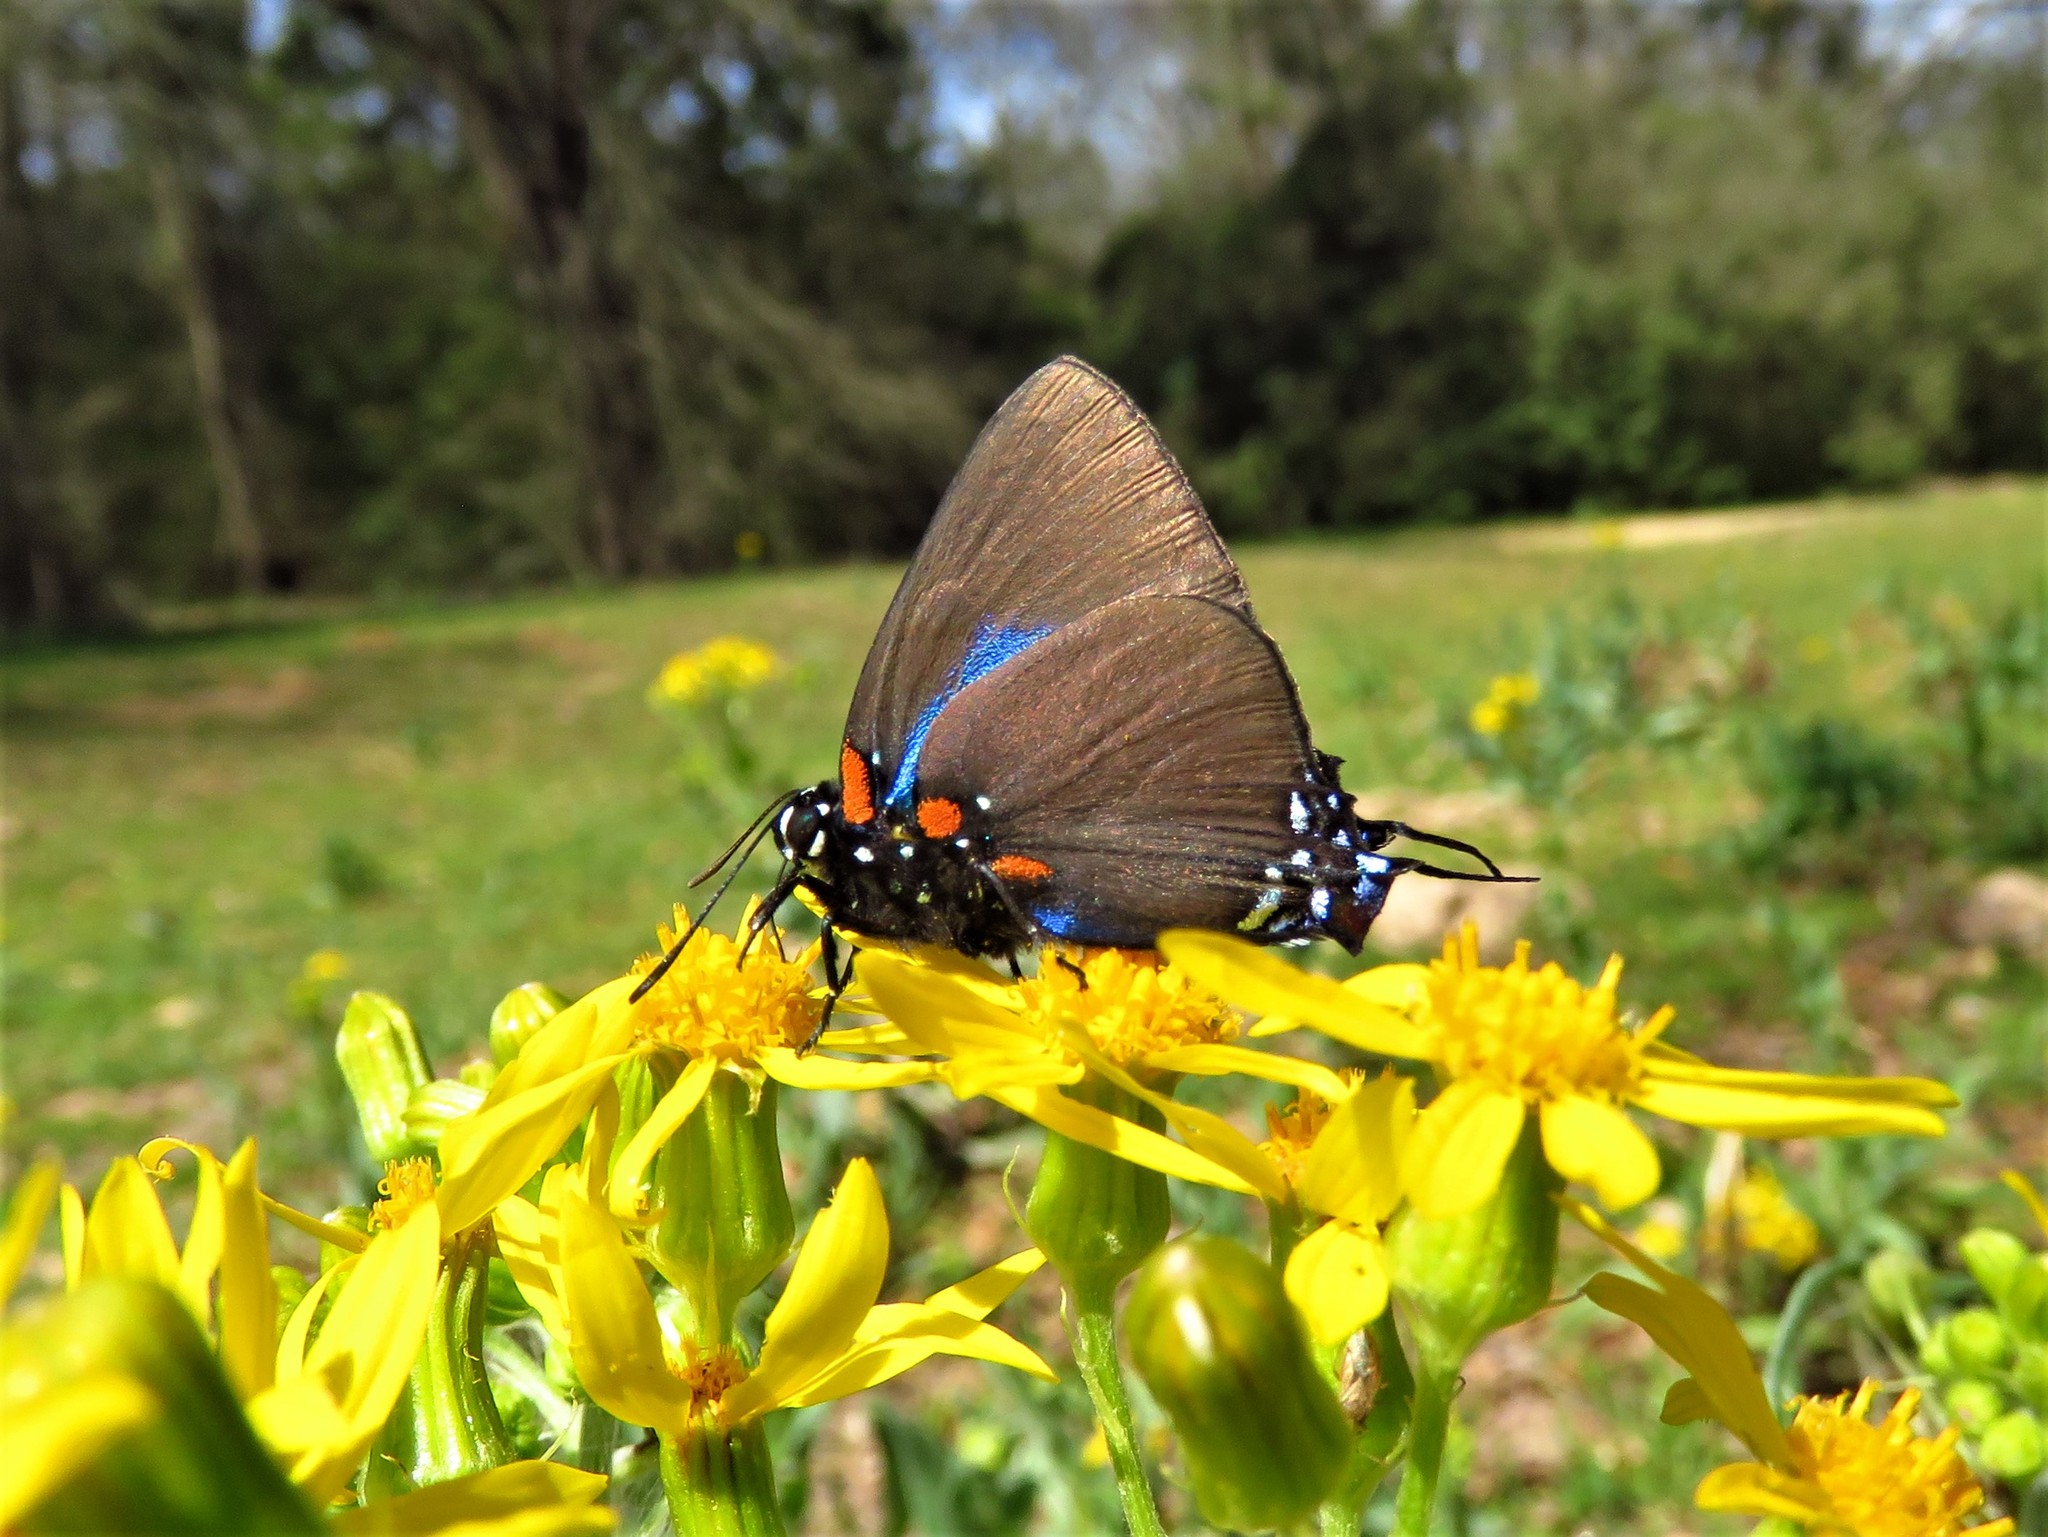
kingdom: Animalia
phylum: Arthropoda
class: Insecta
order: Lepidoptera
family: Lycaenidae
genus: Atlides
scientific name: Atlides halesus
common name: Great purple hairstreak
